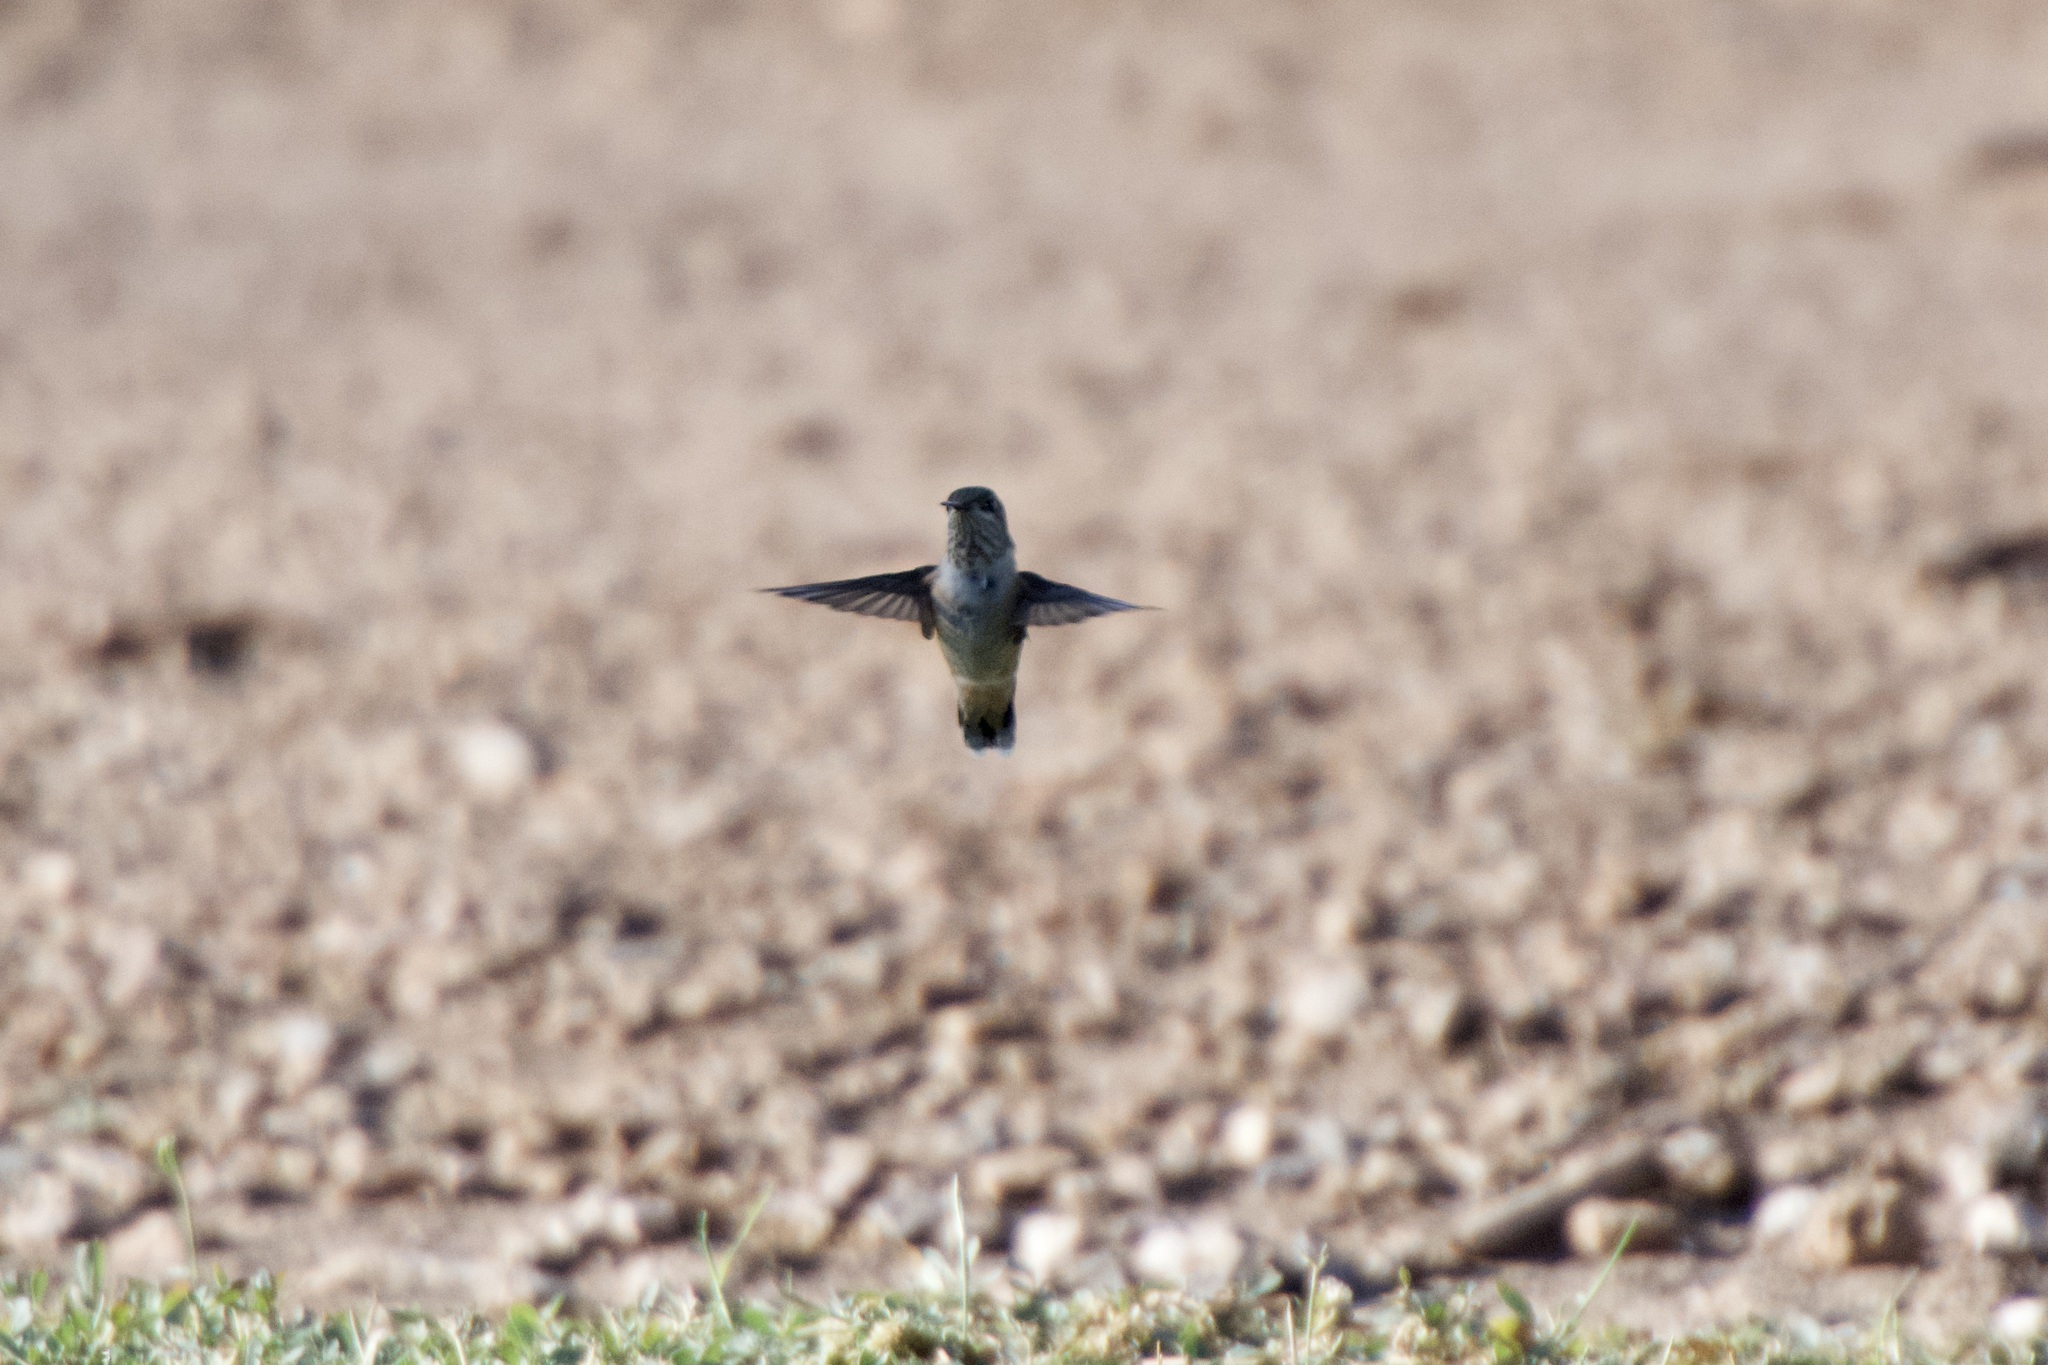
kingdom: Animalia
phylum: Chordata
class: Aves
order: Apodiformes
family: Trochilidae
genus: Selasphorus
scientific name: Selasphorus calliope
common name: Calliope hummingbird
